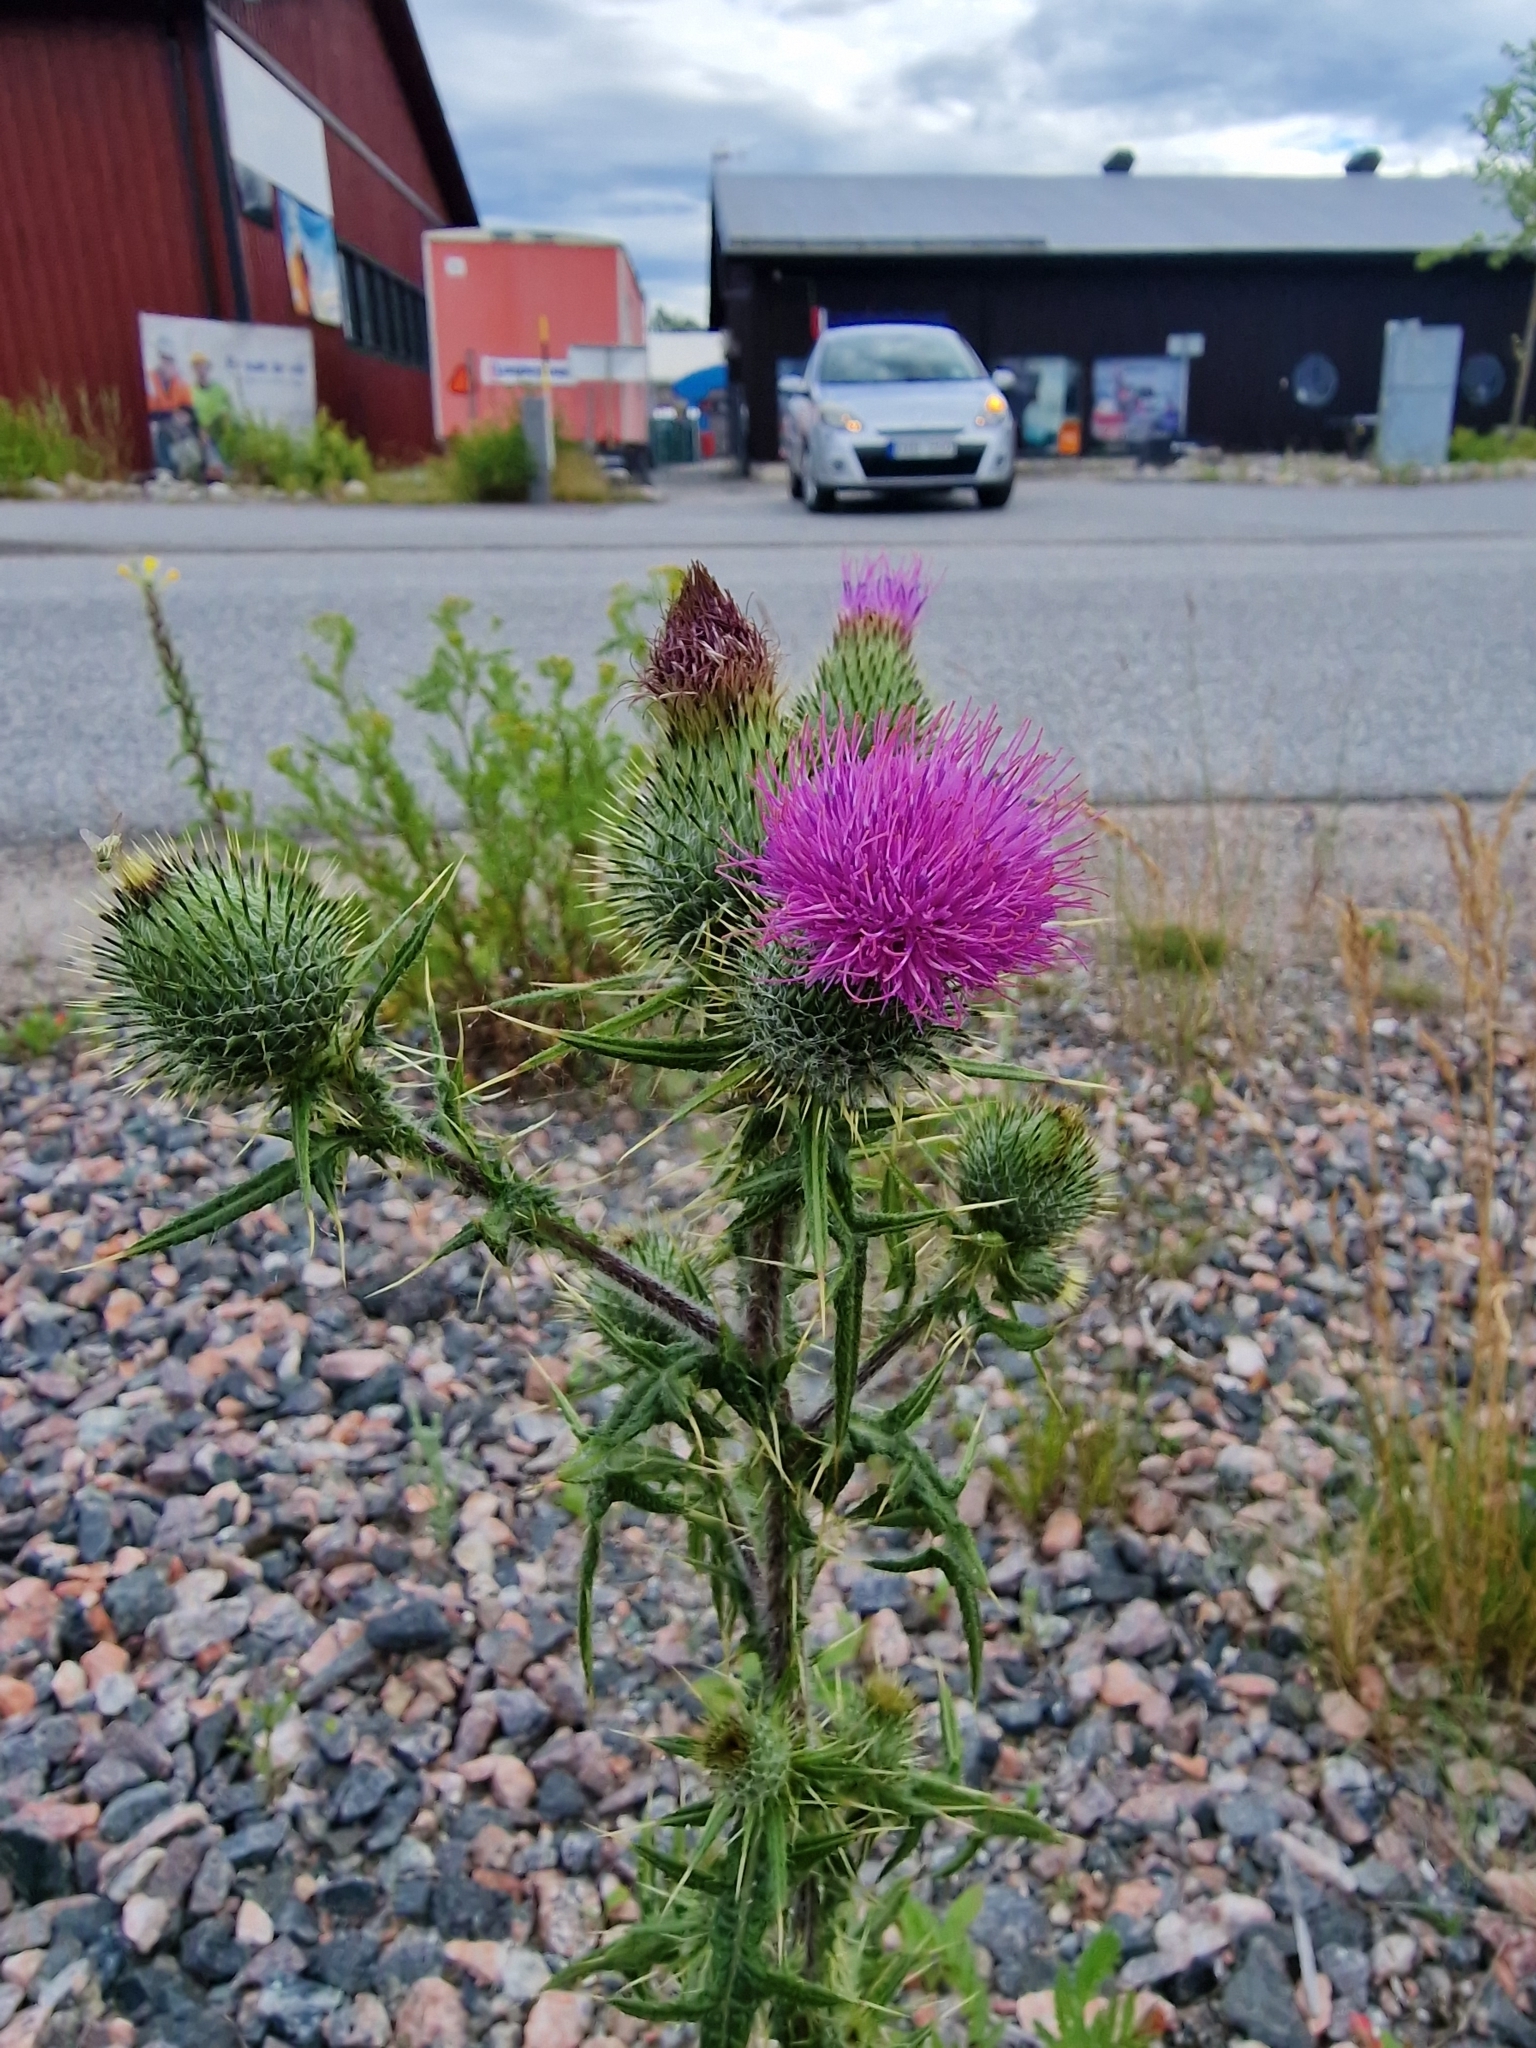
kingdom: Plantae
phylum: Tracheophyta
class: Magnoliopsida
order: Asterales
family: Asteraceae
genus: Cirsium
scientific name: Cirsium vulgare
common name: Bull thistle
